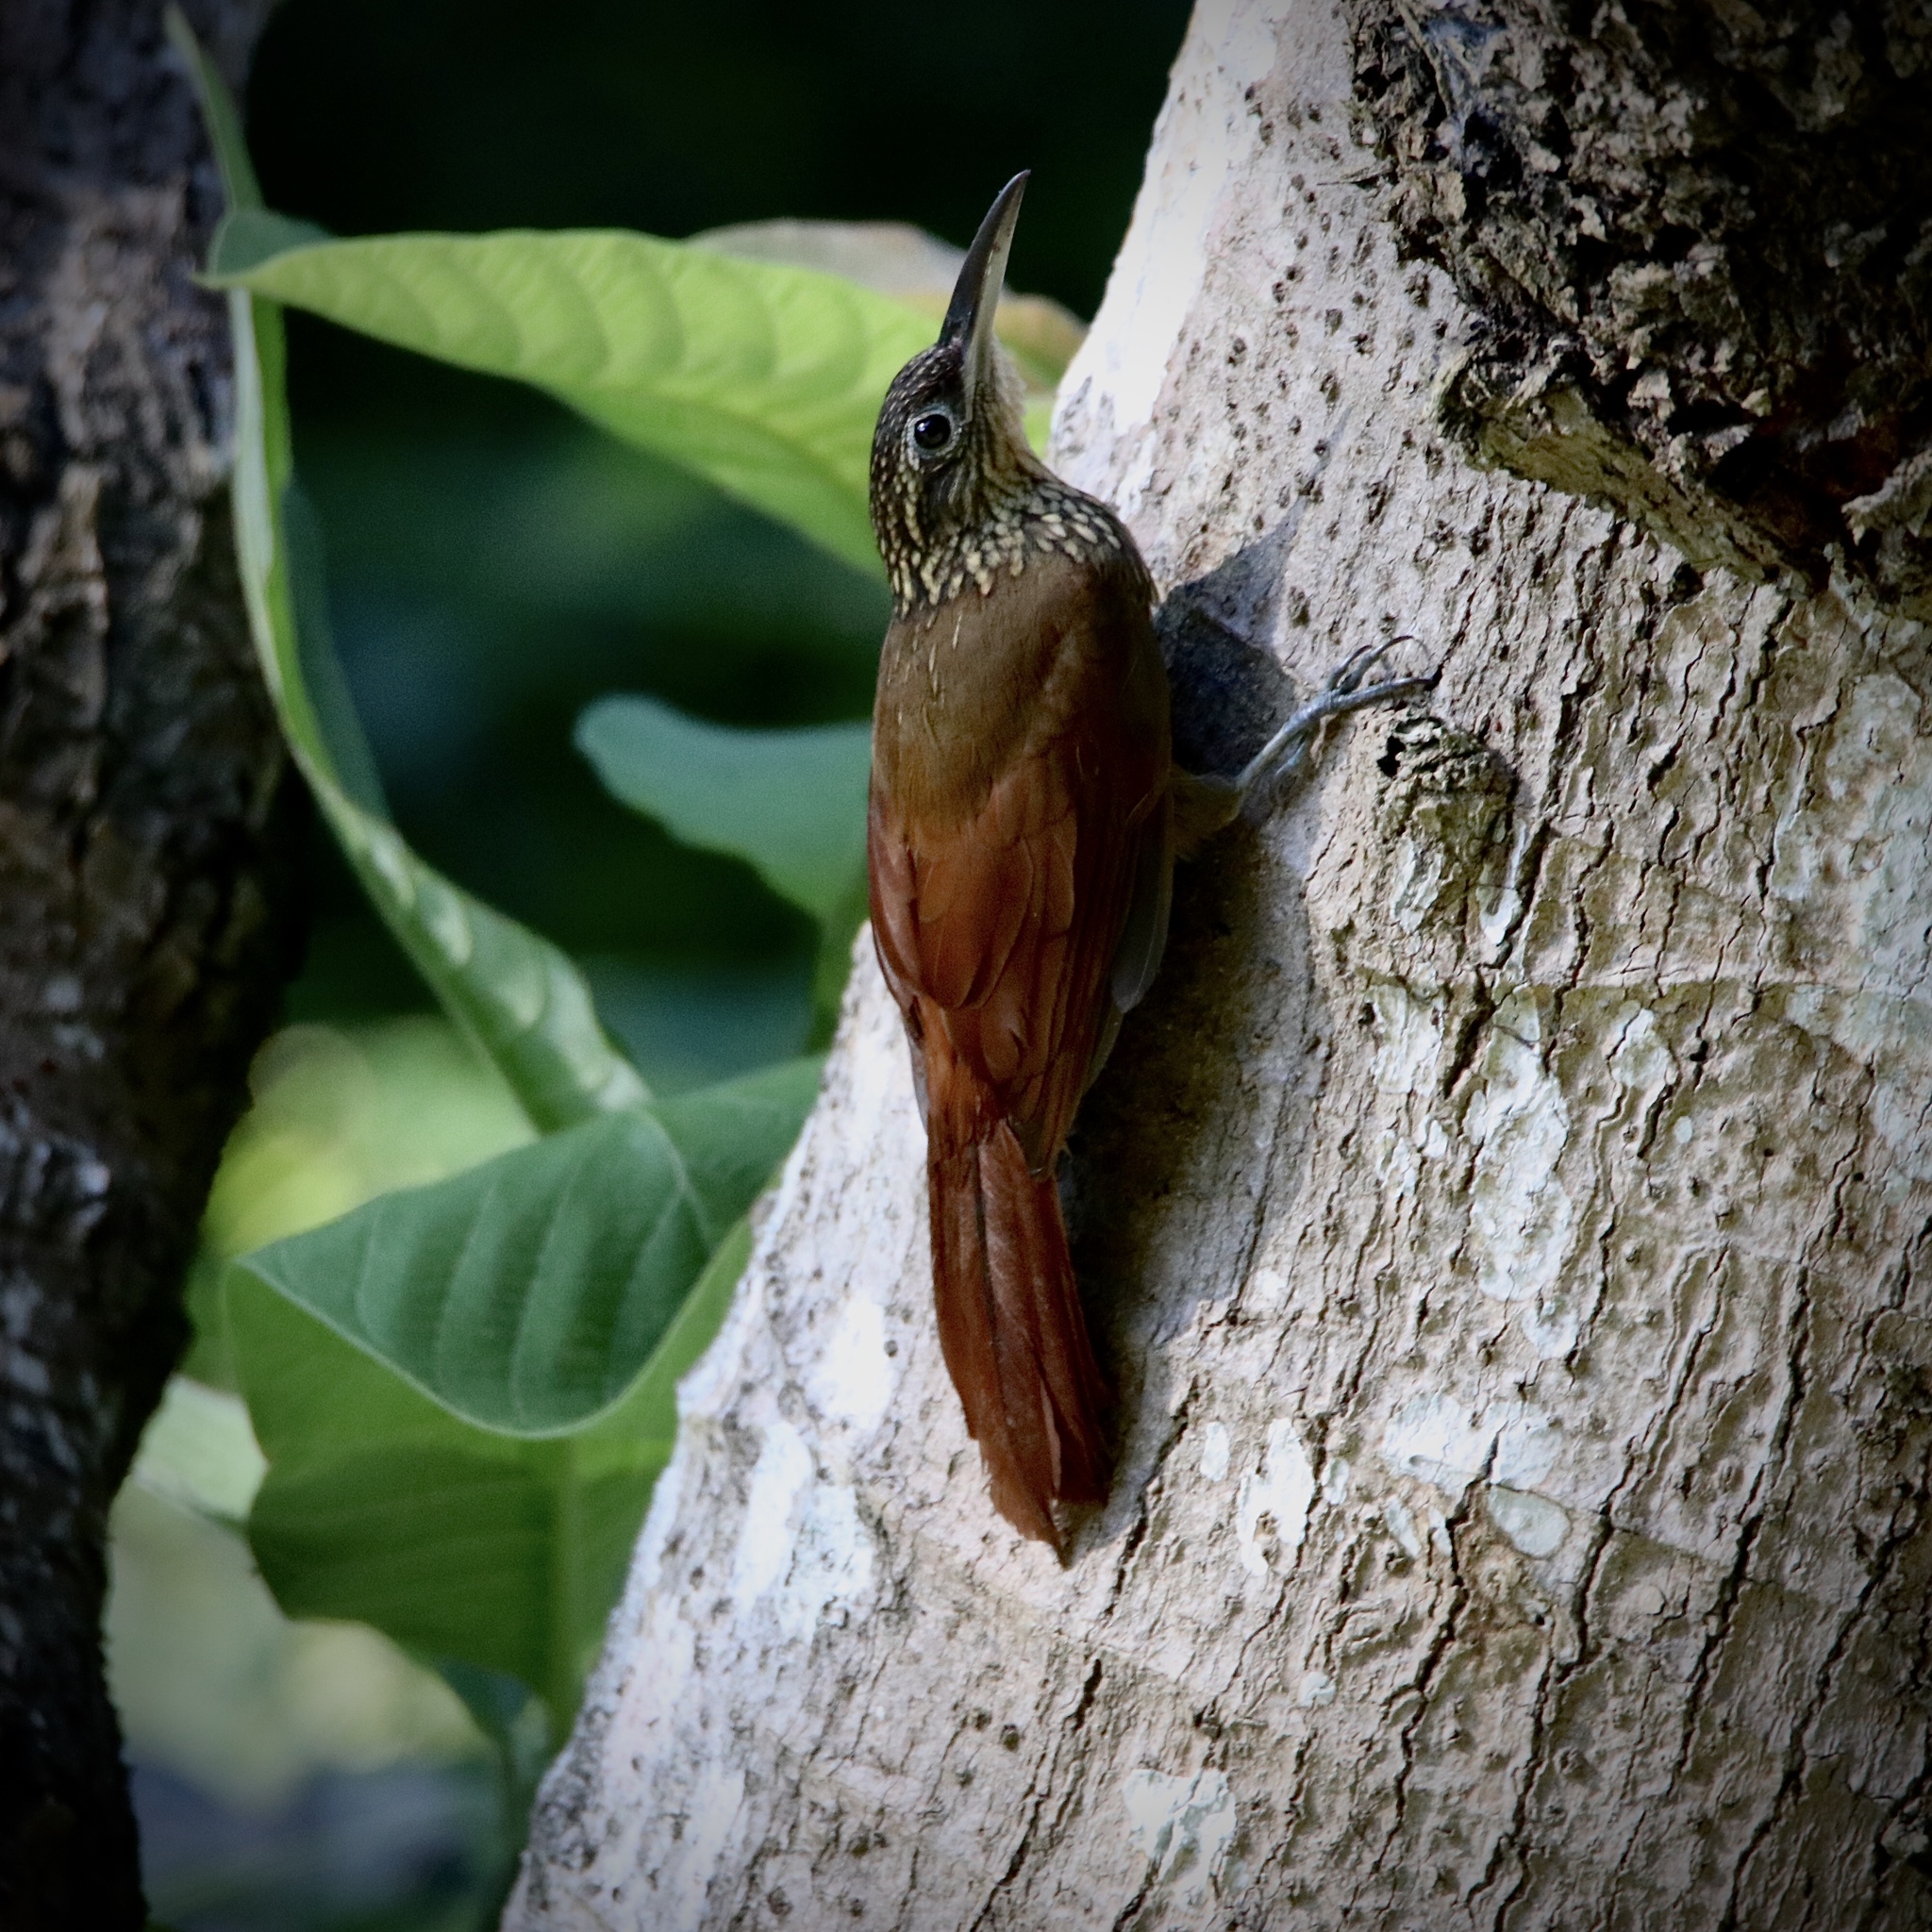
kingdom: Animalia
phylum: Chordata
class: Aves
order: Passeriformes
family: Furnariidae
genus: Xiphorhynchus
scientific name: Xiphorhynchus susurrans
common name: Cocoa woodcreeper
